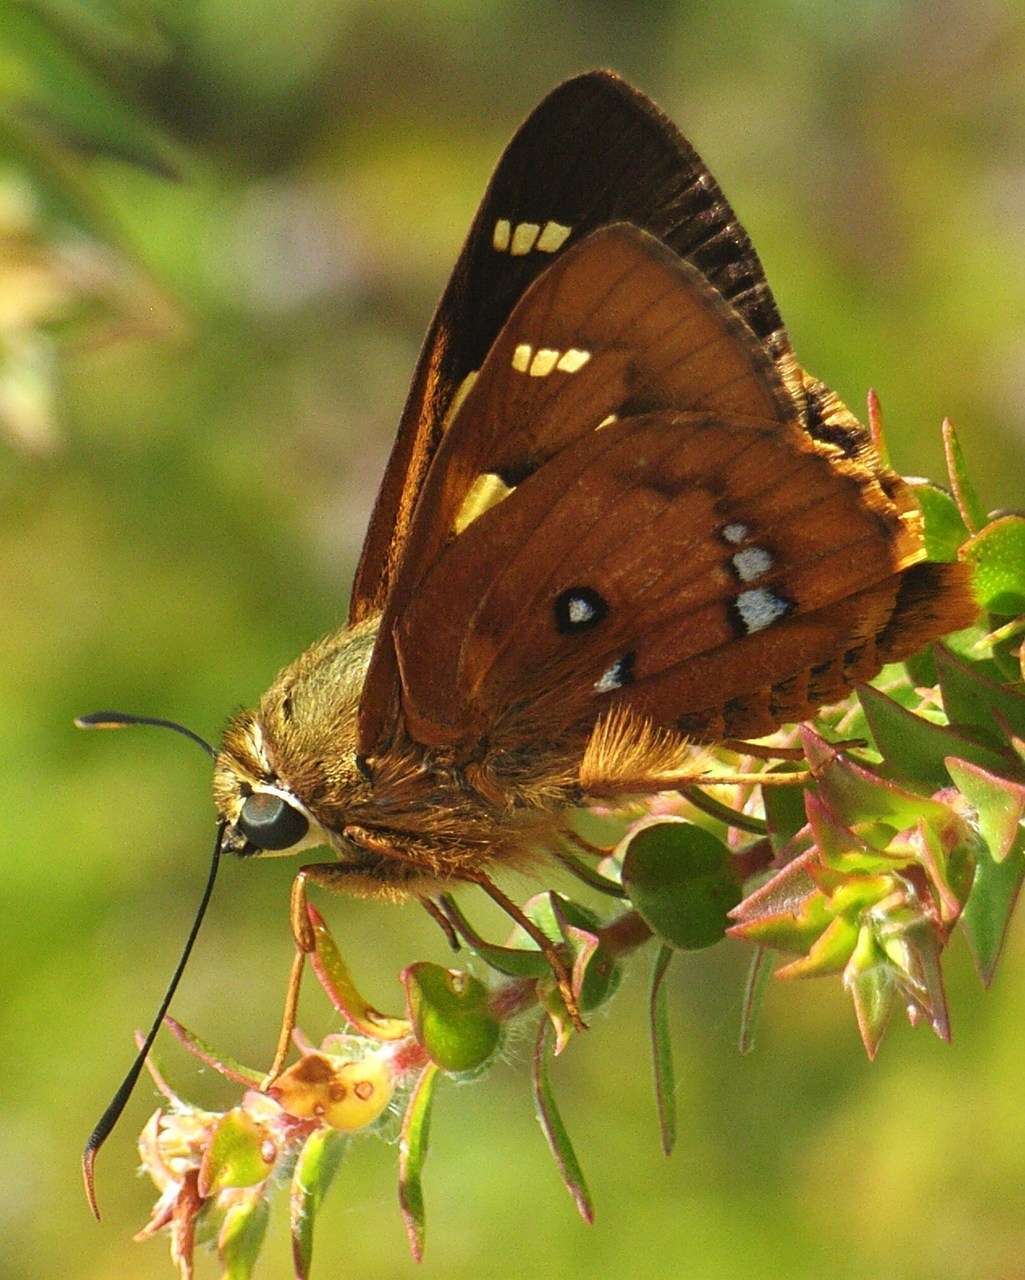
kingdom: Animalia
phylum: Arthropoda
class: Insecta
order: Lepidoptera
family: Hesperiidae
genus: Trapezites
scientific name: Trapezites symmomus
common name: Splendid ochre
